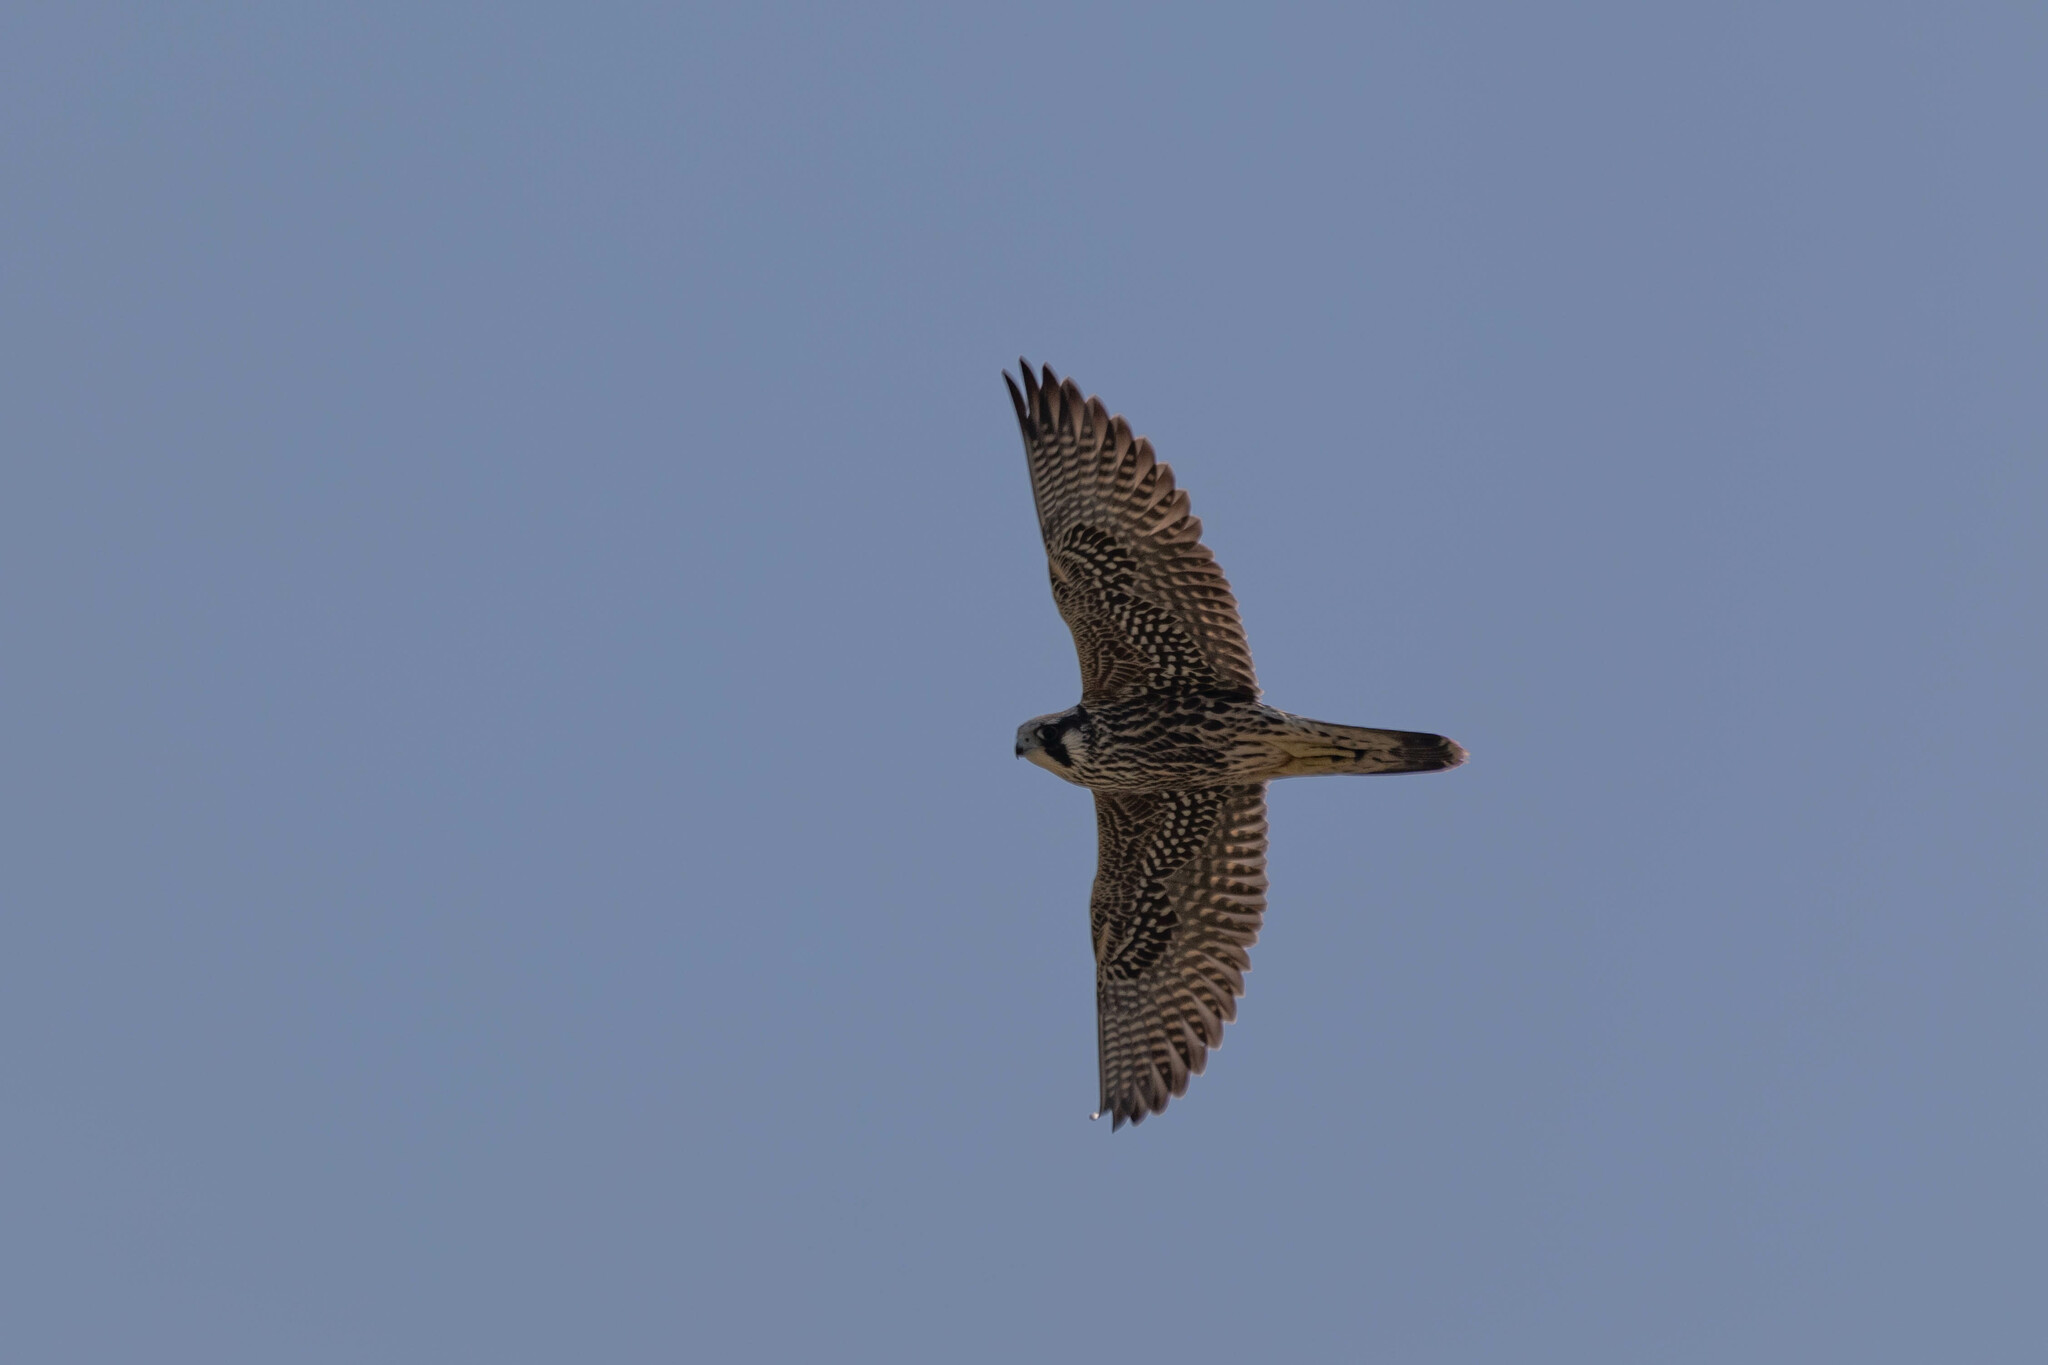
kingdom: Animalia
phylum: Chordata
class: Aves
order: Falconiformes
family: Falconidae
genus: Falco
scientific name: Falco peregrinus
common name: Peregrine falcon
